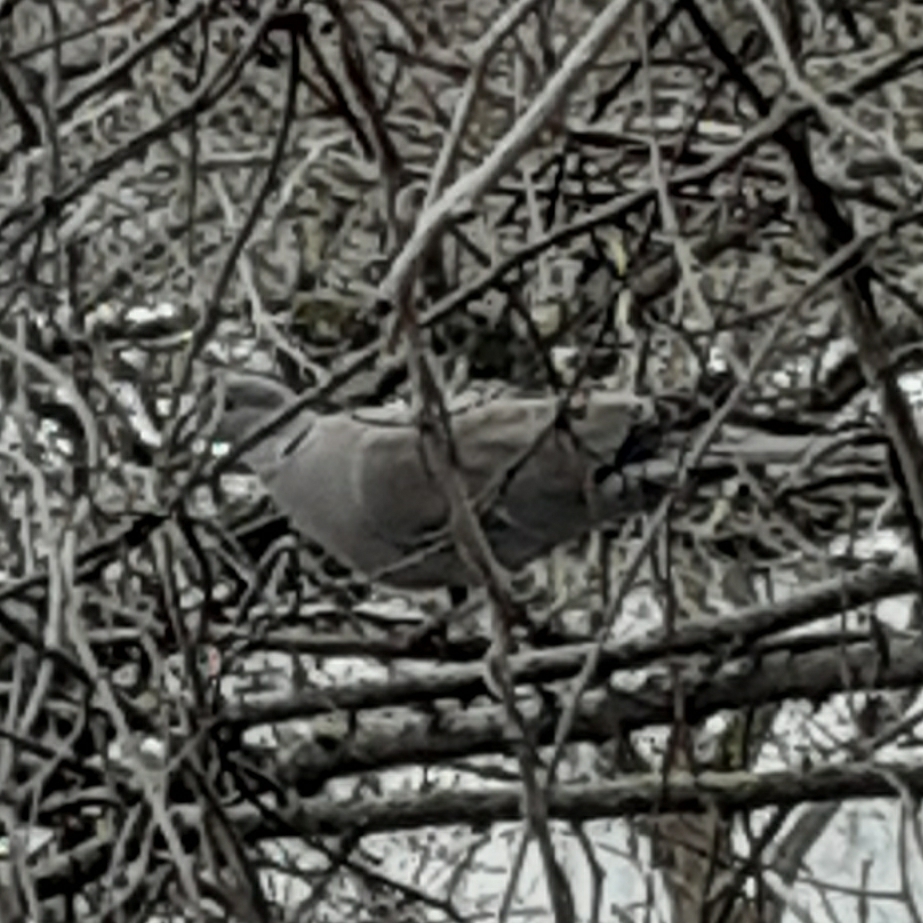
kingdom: Animalia
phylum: Chordata
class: Aves
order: Columbiformes
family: Columbidae
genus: Streptopelia
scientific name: Streptopelia decaocto
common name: Eurasian collared dove
